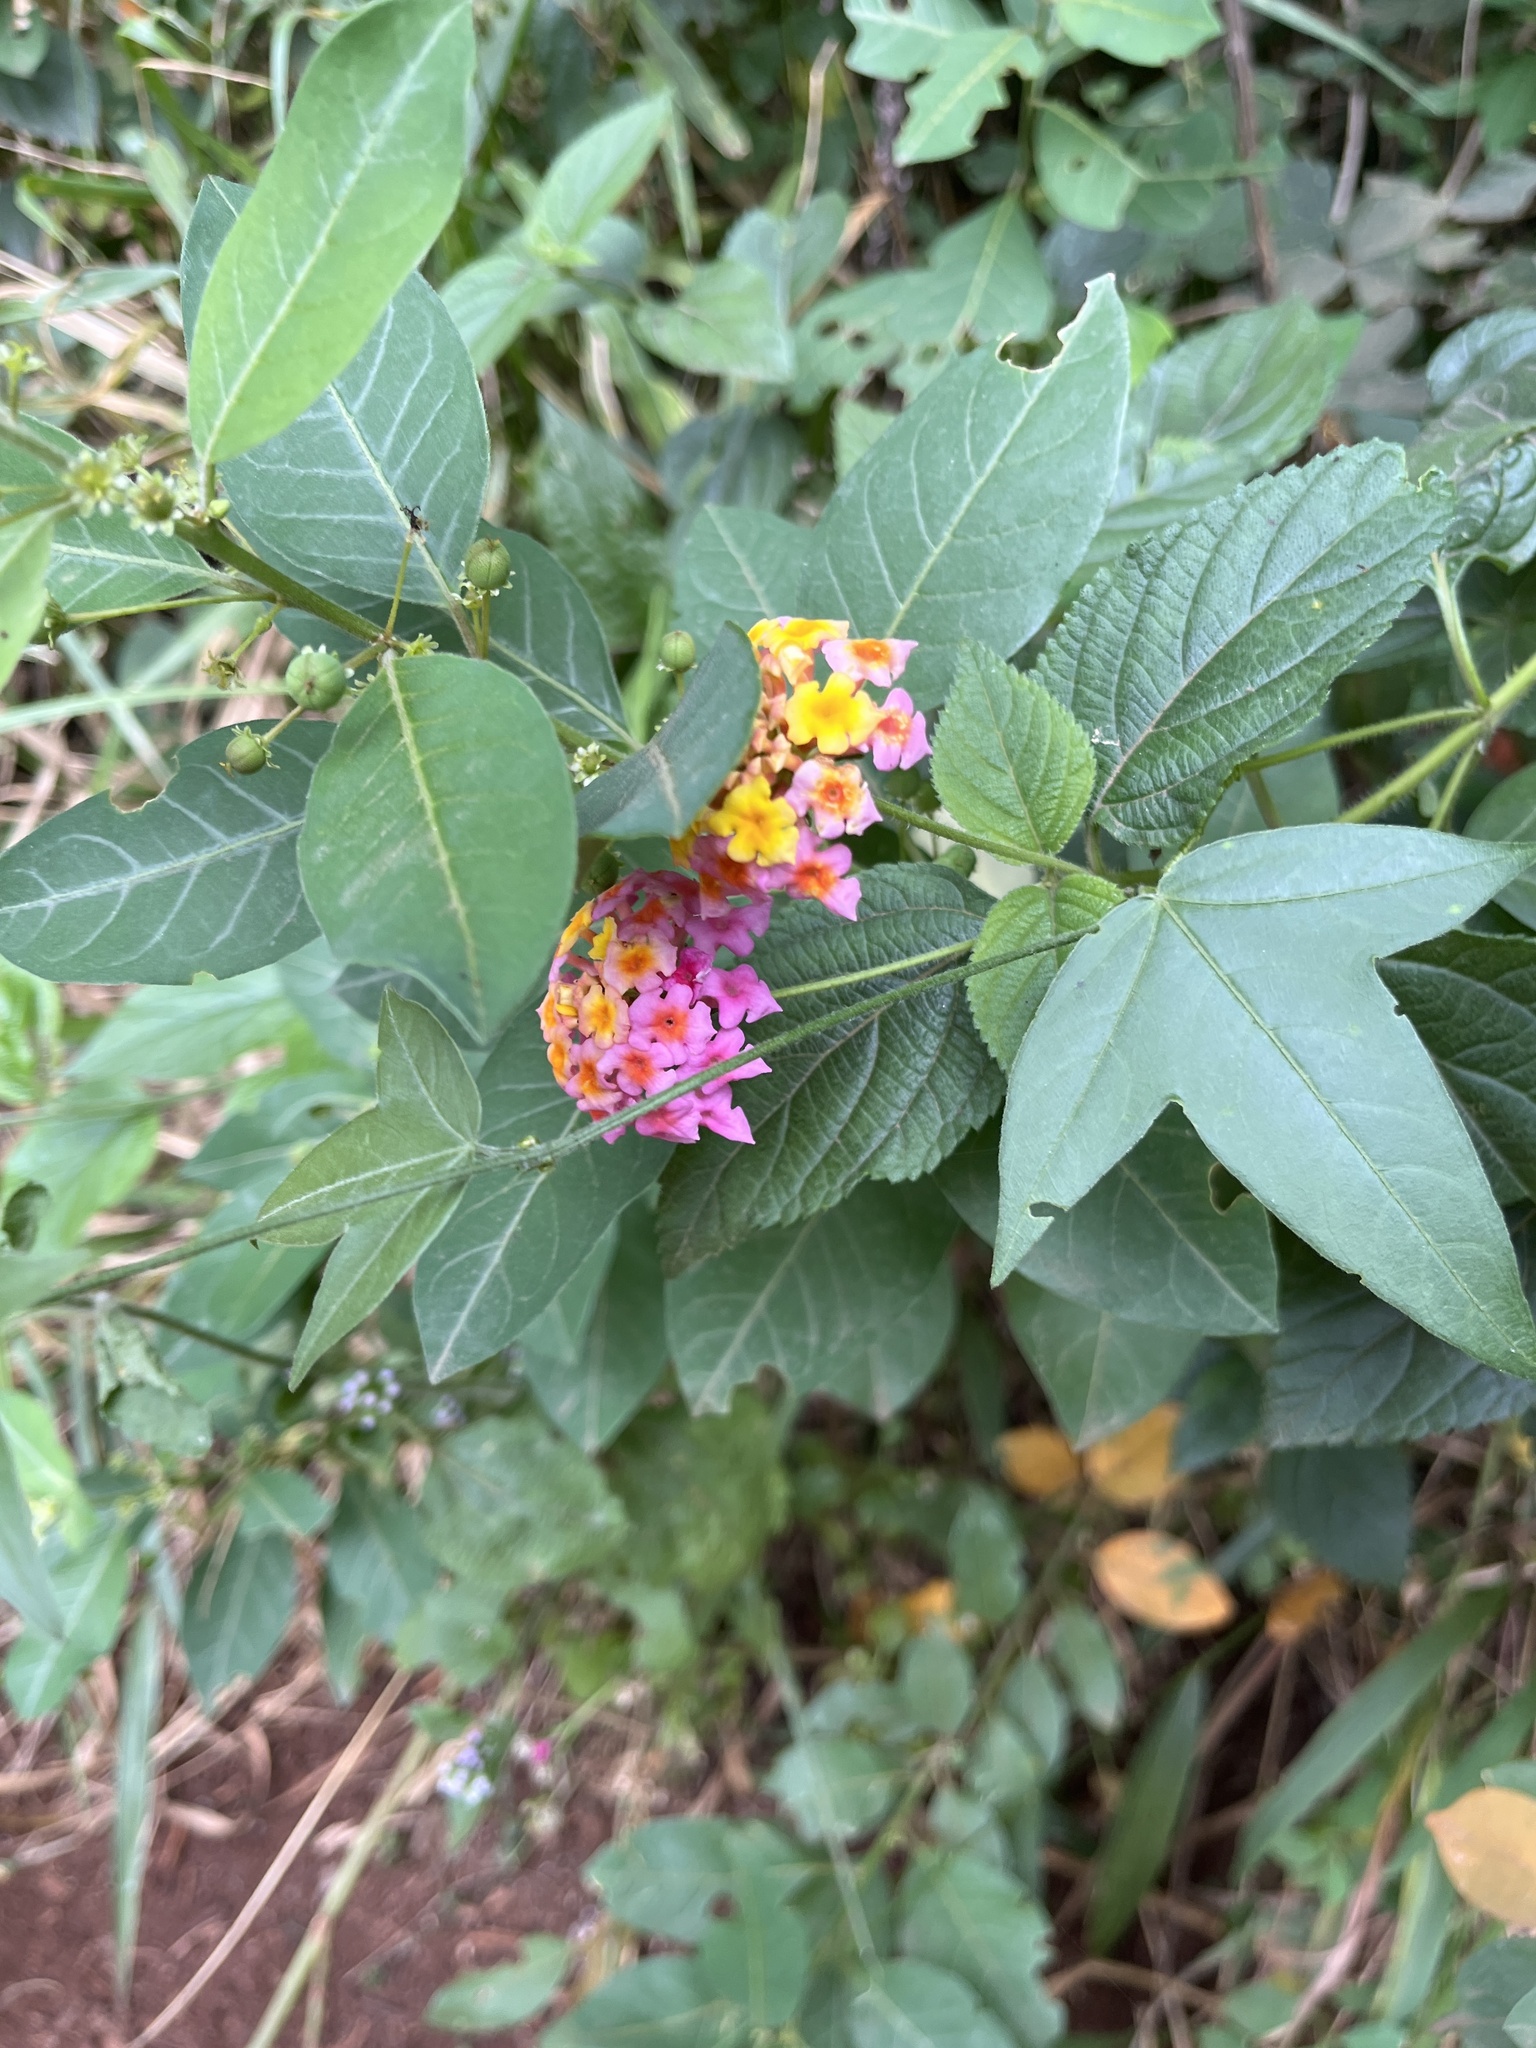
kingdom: Plantae
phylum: Tracheophyta
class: Magnoliopsida
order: Lamiales
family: Verbenaceae
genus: Lantana
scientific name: Lantana camara
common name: Lantana
